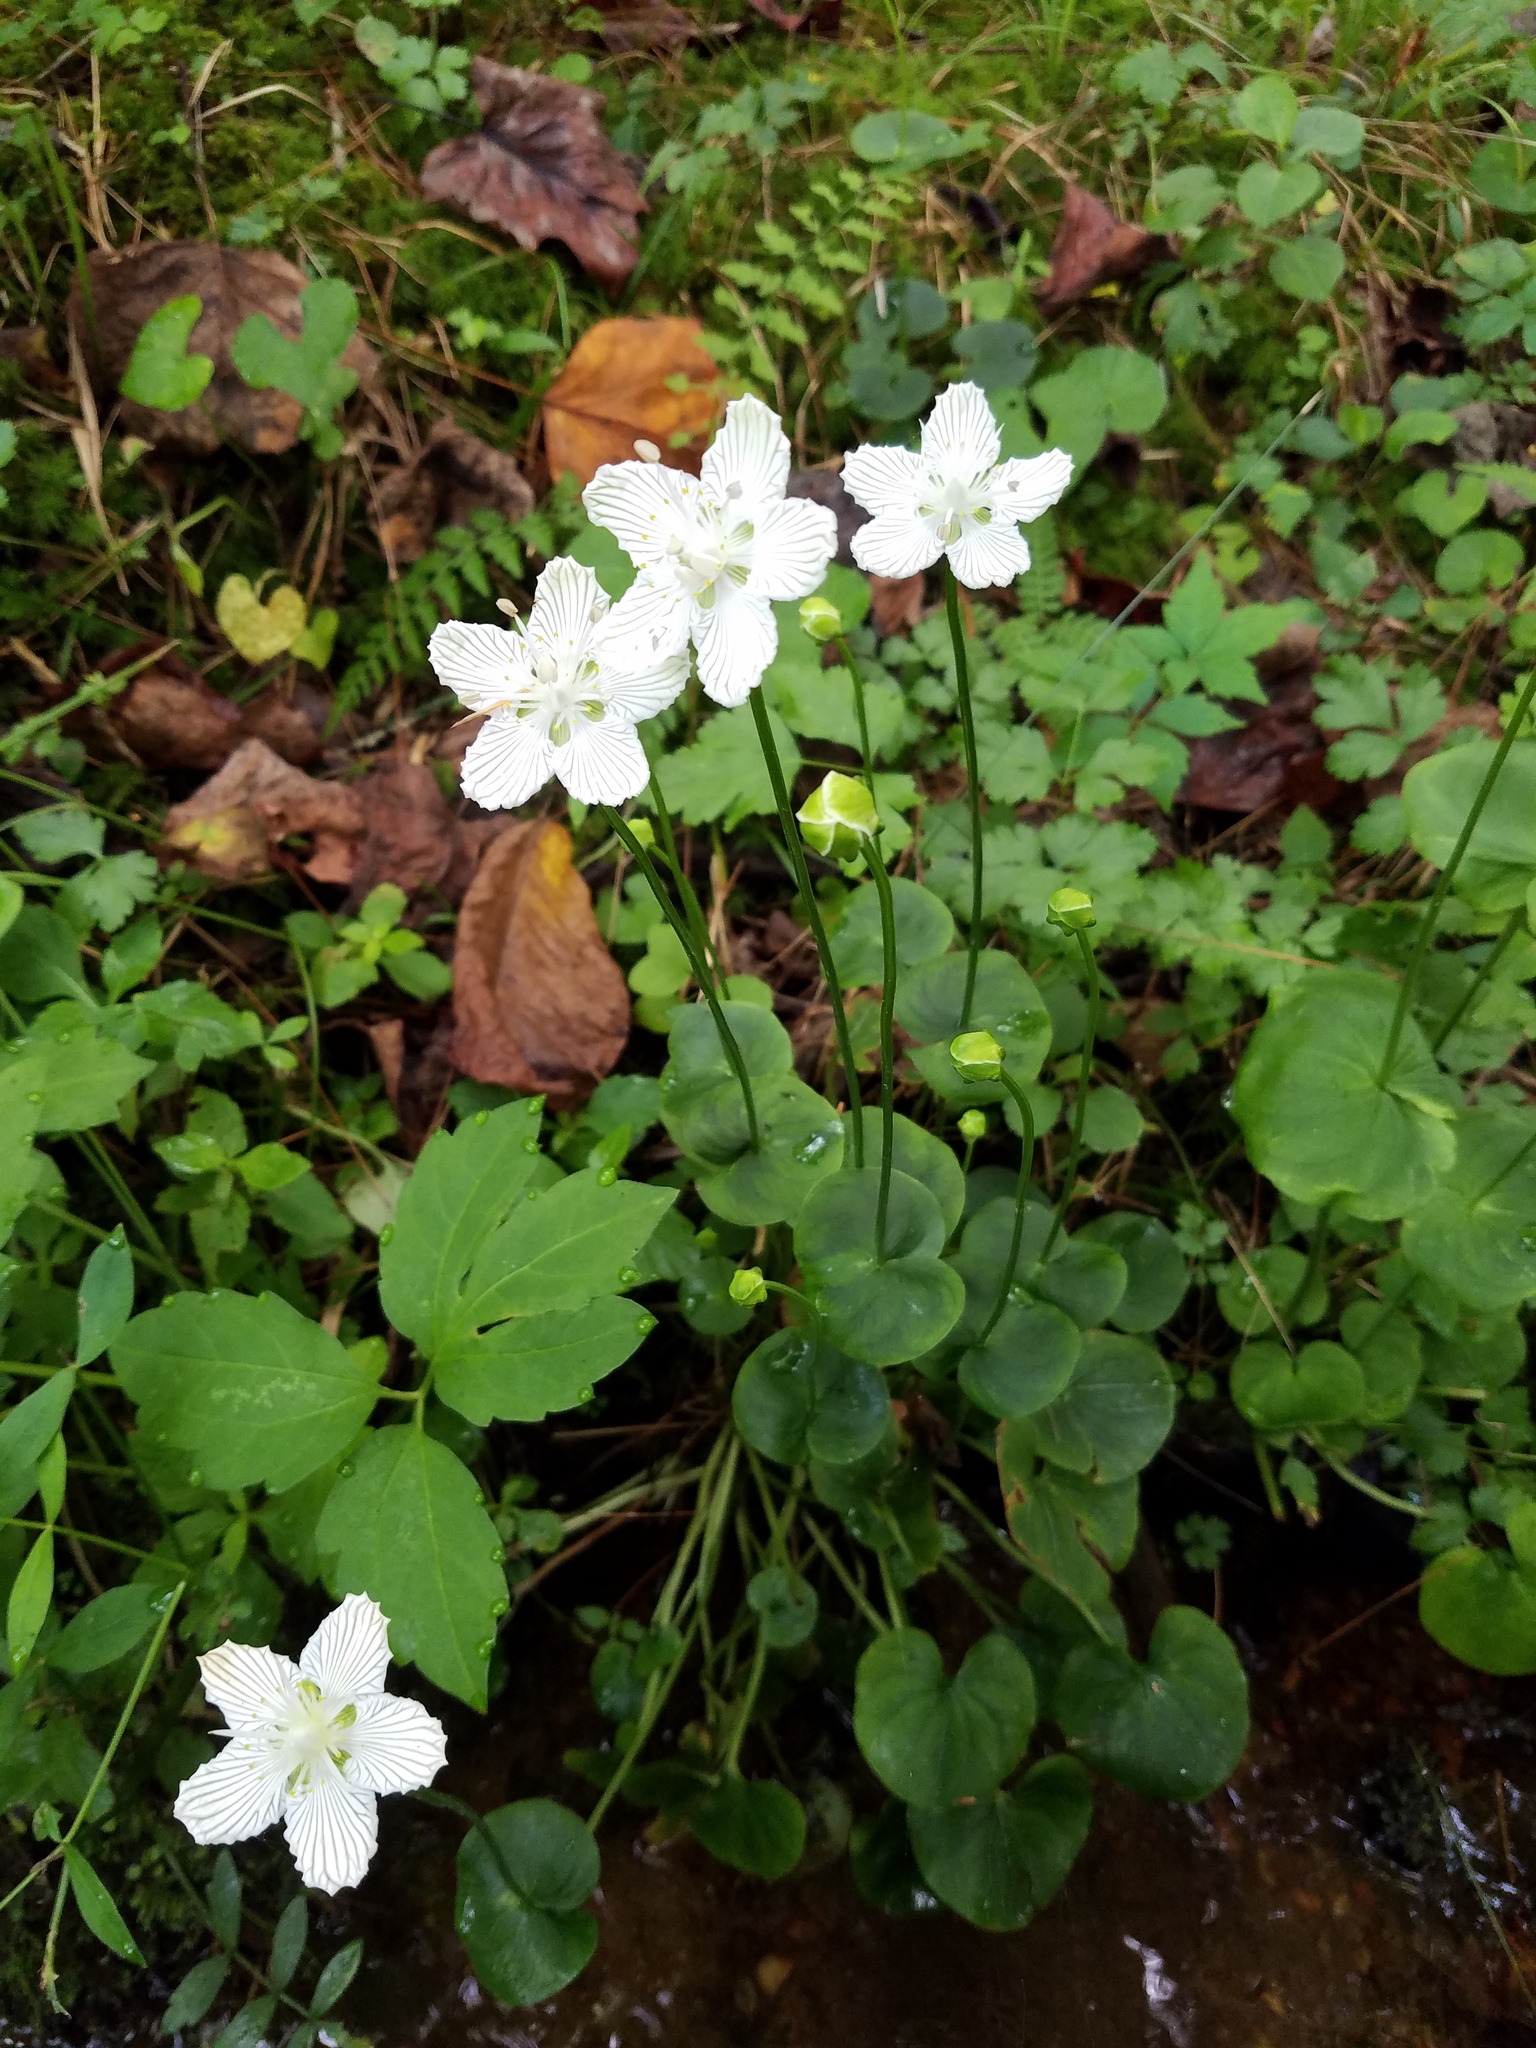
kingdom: Plantae
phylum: Tracheophyta
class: Magnoliopsida
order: Celastrales
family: Parnassiaceae
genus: Parnassia
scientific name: Parnassia asarifolia
